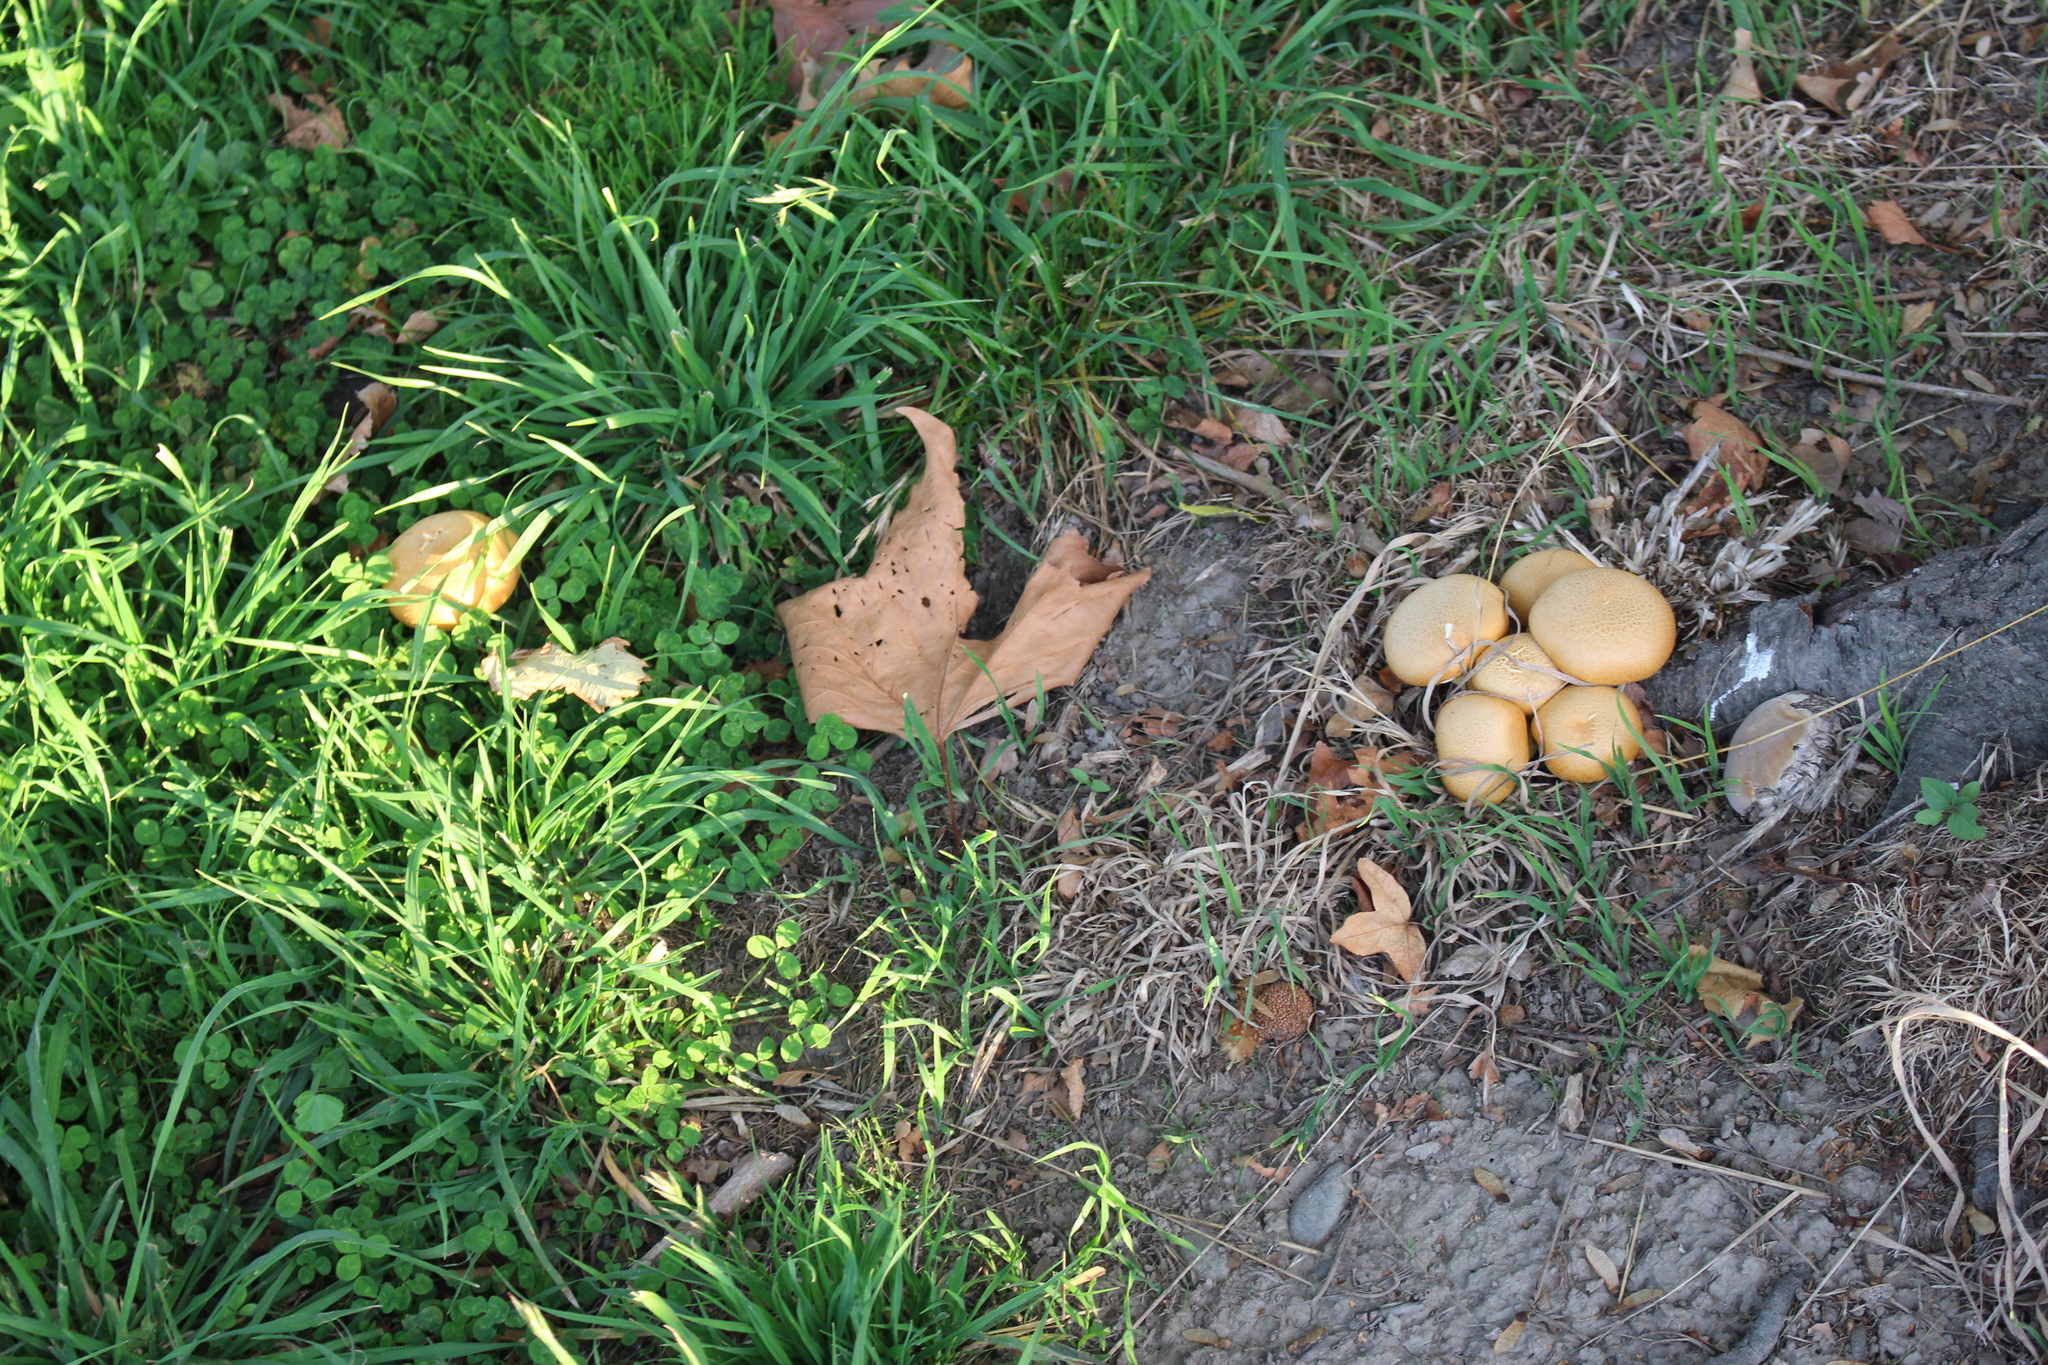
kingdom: Fungi
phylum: Basidiomycota
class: Agaricomycetes
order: Agaricales
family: Hymenogastraceae
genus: Gymnopilus
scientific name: Gymnopilus junonius
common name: Spectacular rustgill
